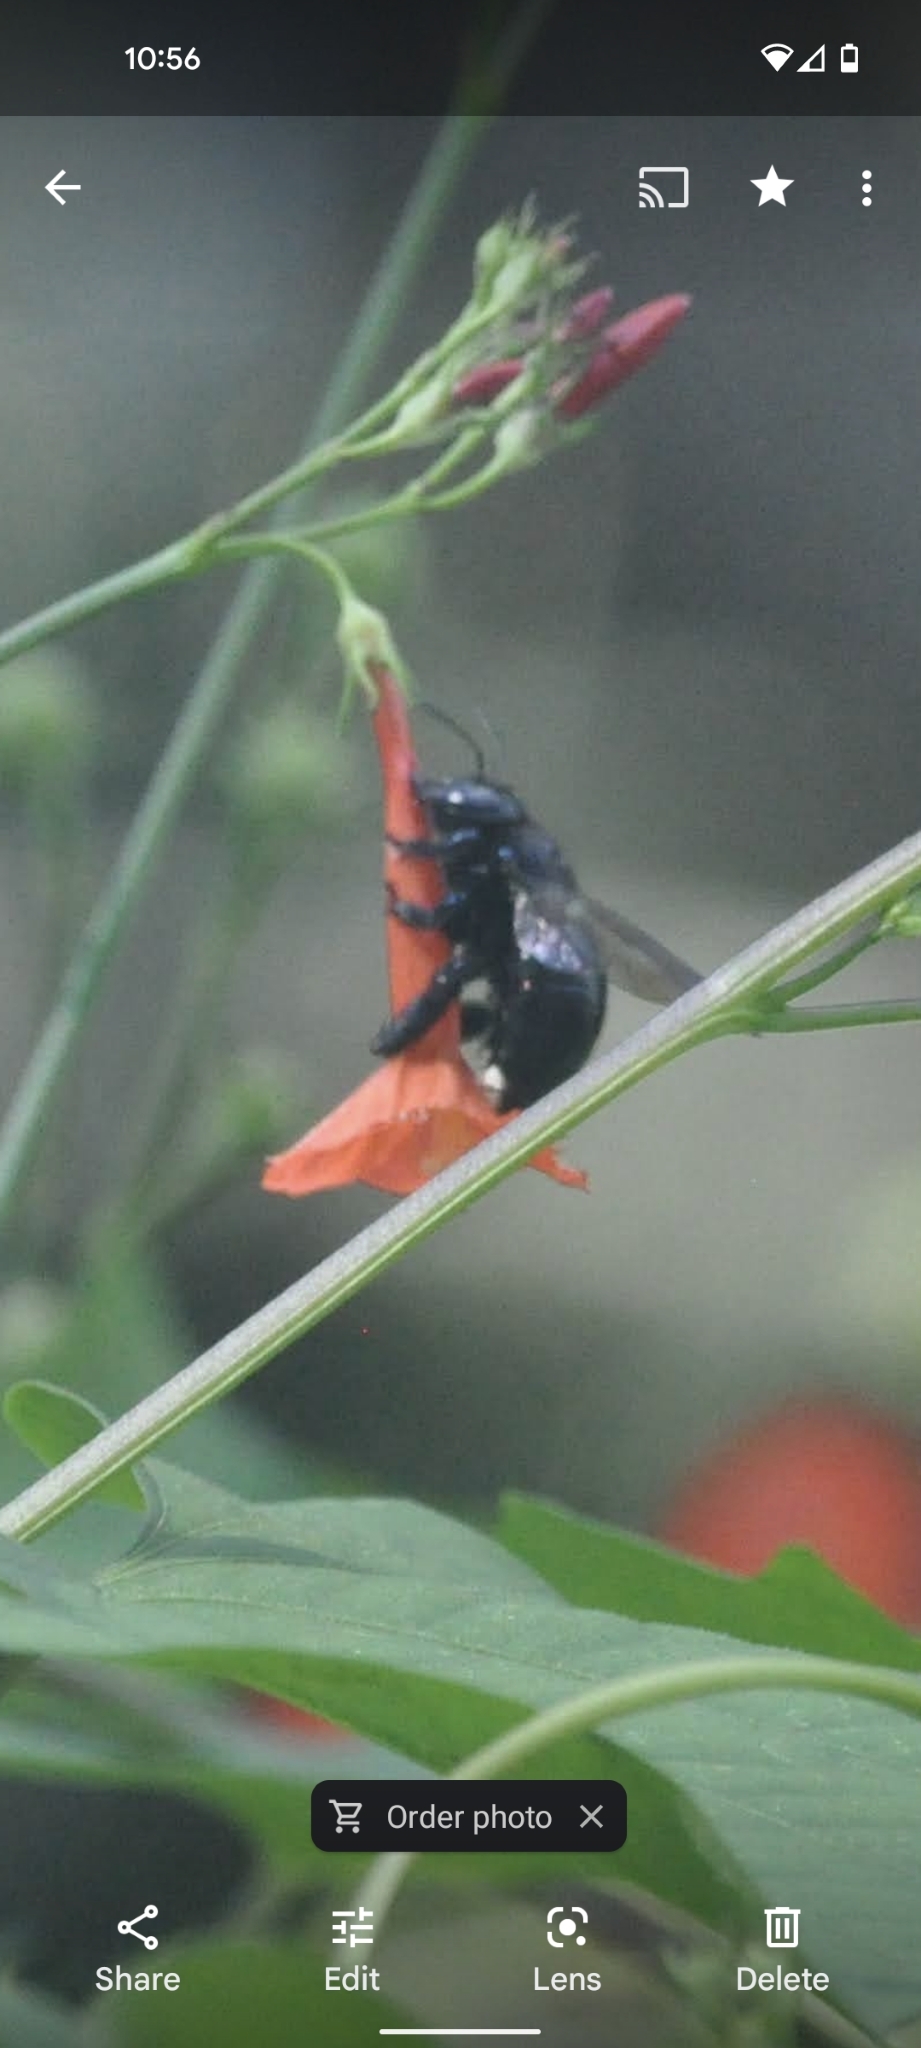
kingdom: Animalia
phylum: Arthropoda
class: Insecta
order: Hymenoptera
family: Apidae
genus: Xylocopa
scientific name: Xylocopa micans
